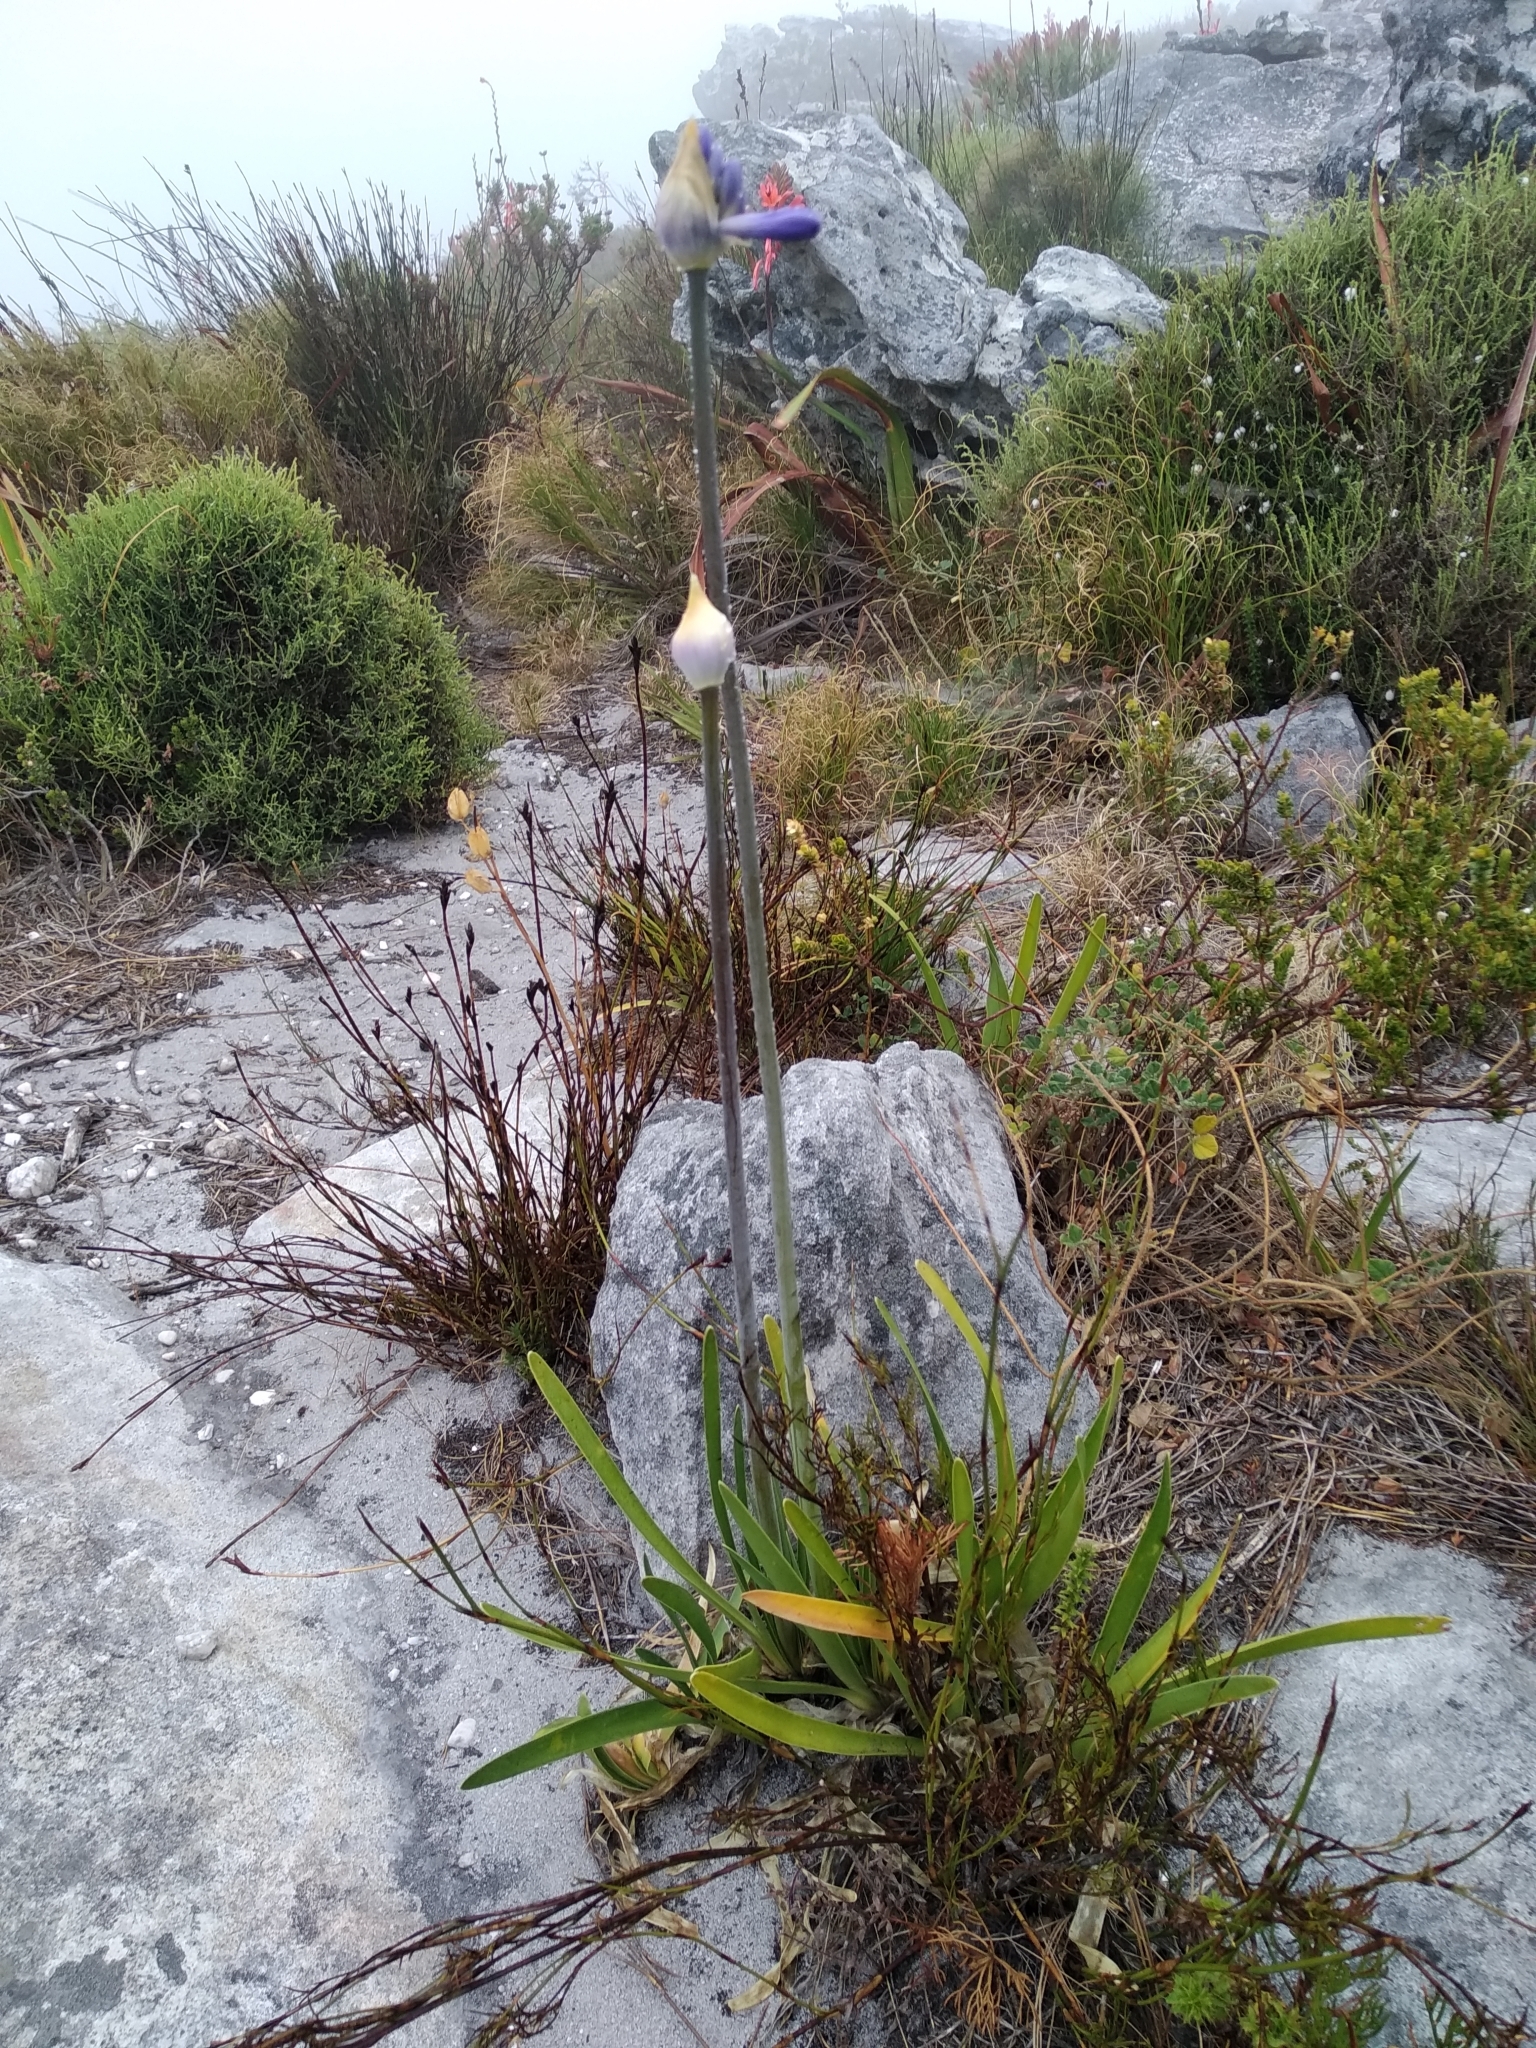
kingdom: Plantae
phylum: Tracheophyta
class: Liliopsida
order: Asparagales
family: Amaryllidaceae
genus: Agapanthus
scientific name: Agapanthus africanus
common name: Lily-of-the-nile
